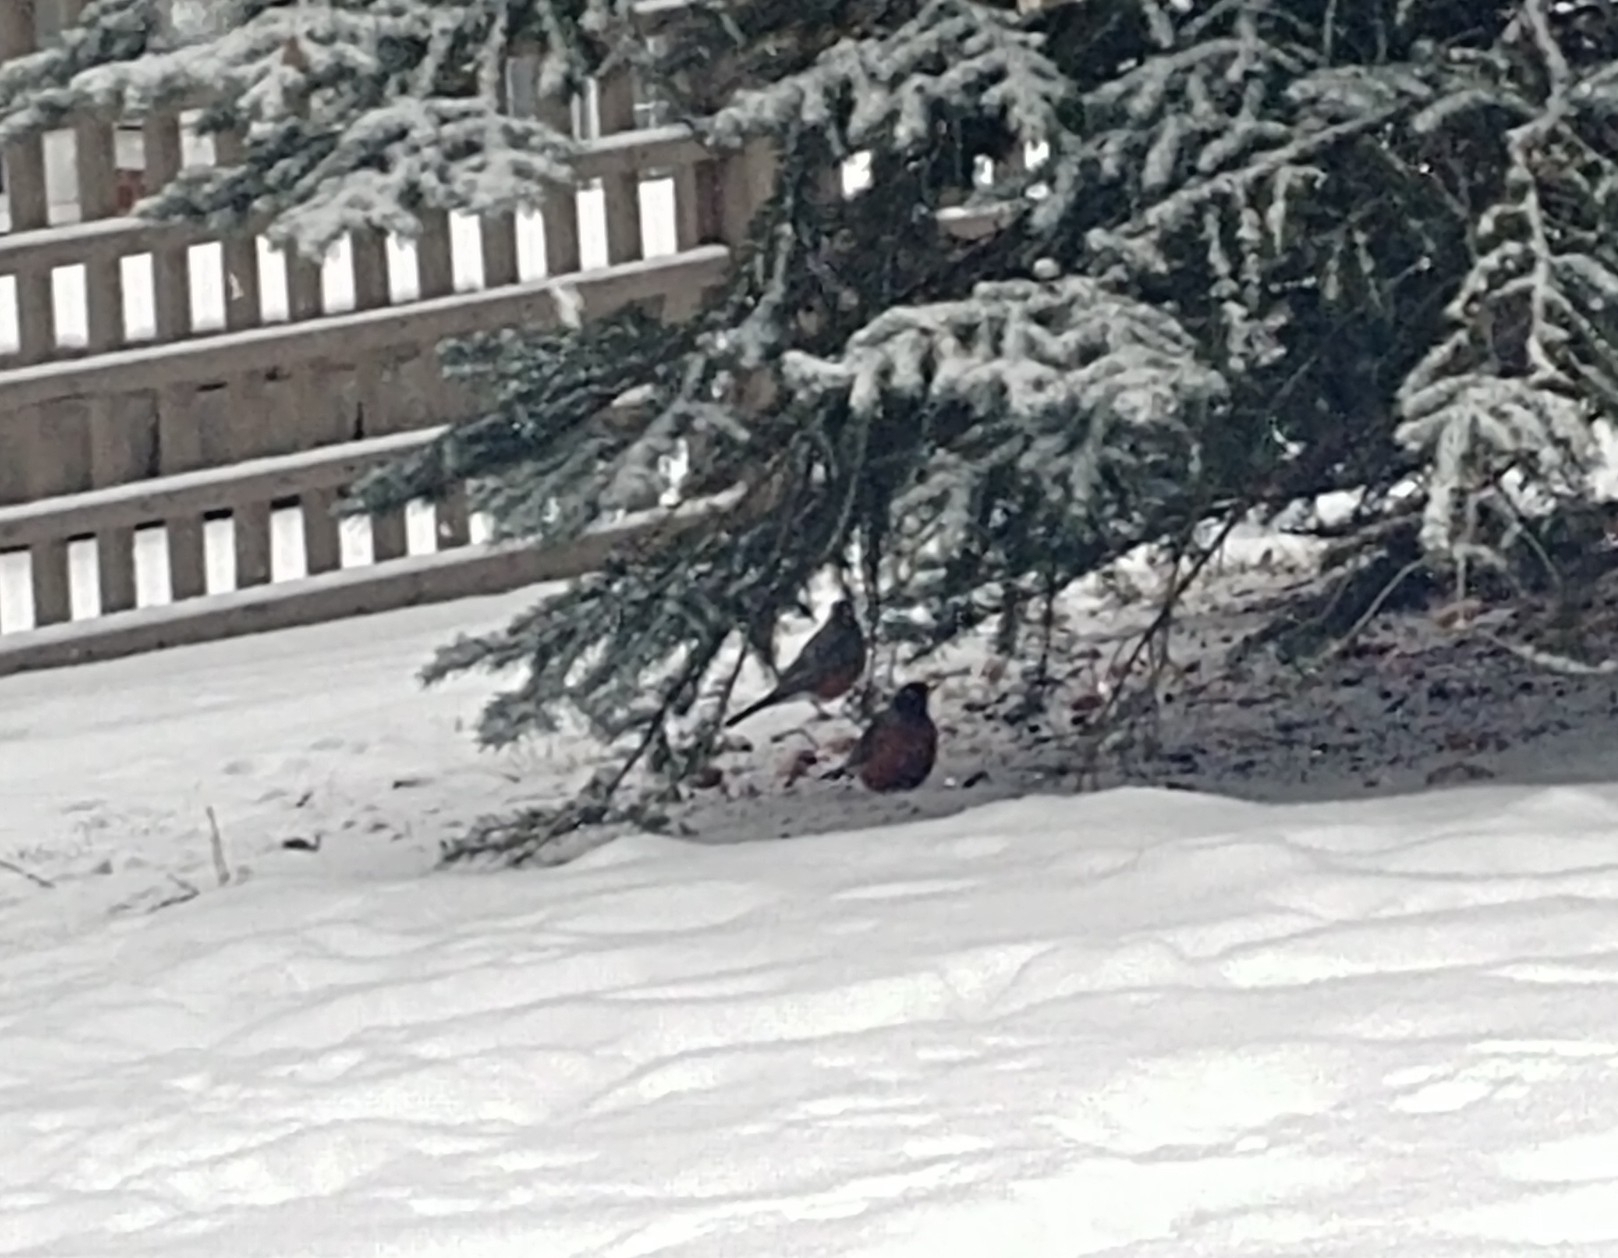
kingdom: Animalia
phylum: Chordata
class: Aves
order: Passeriformes
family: Turdidae
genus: Turdus
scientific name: Turdus migratorius
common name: American robin
